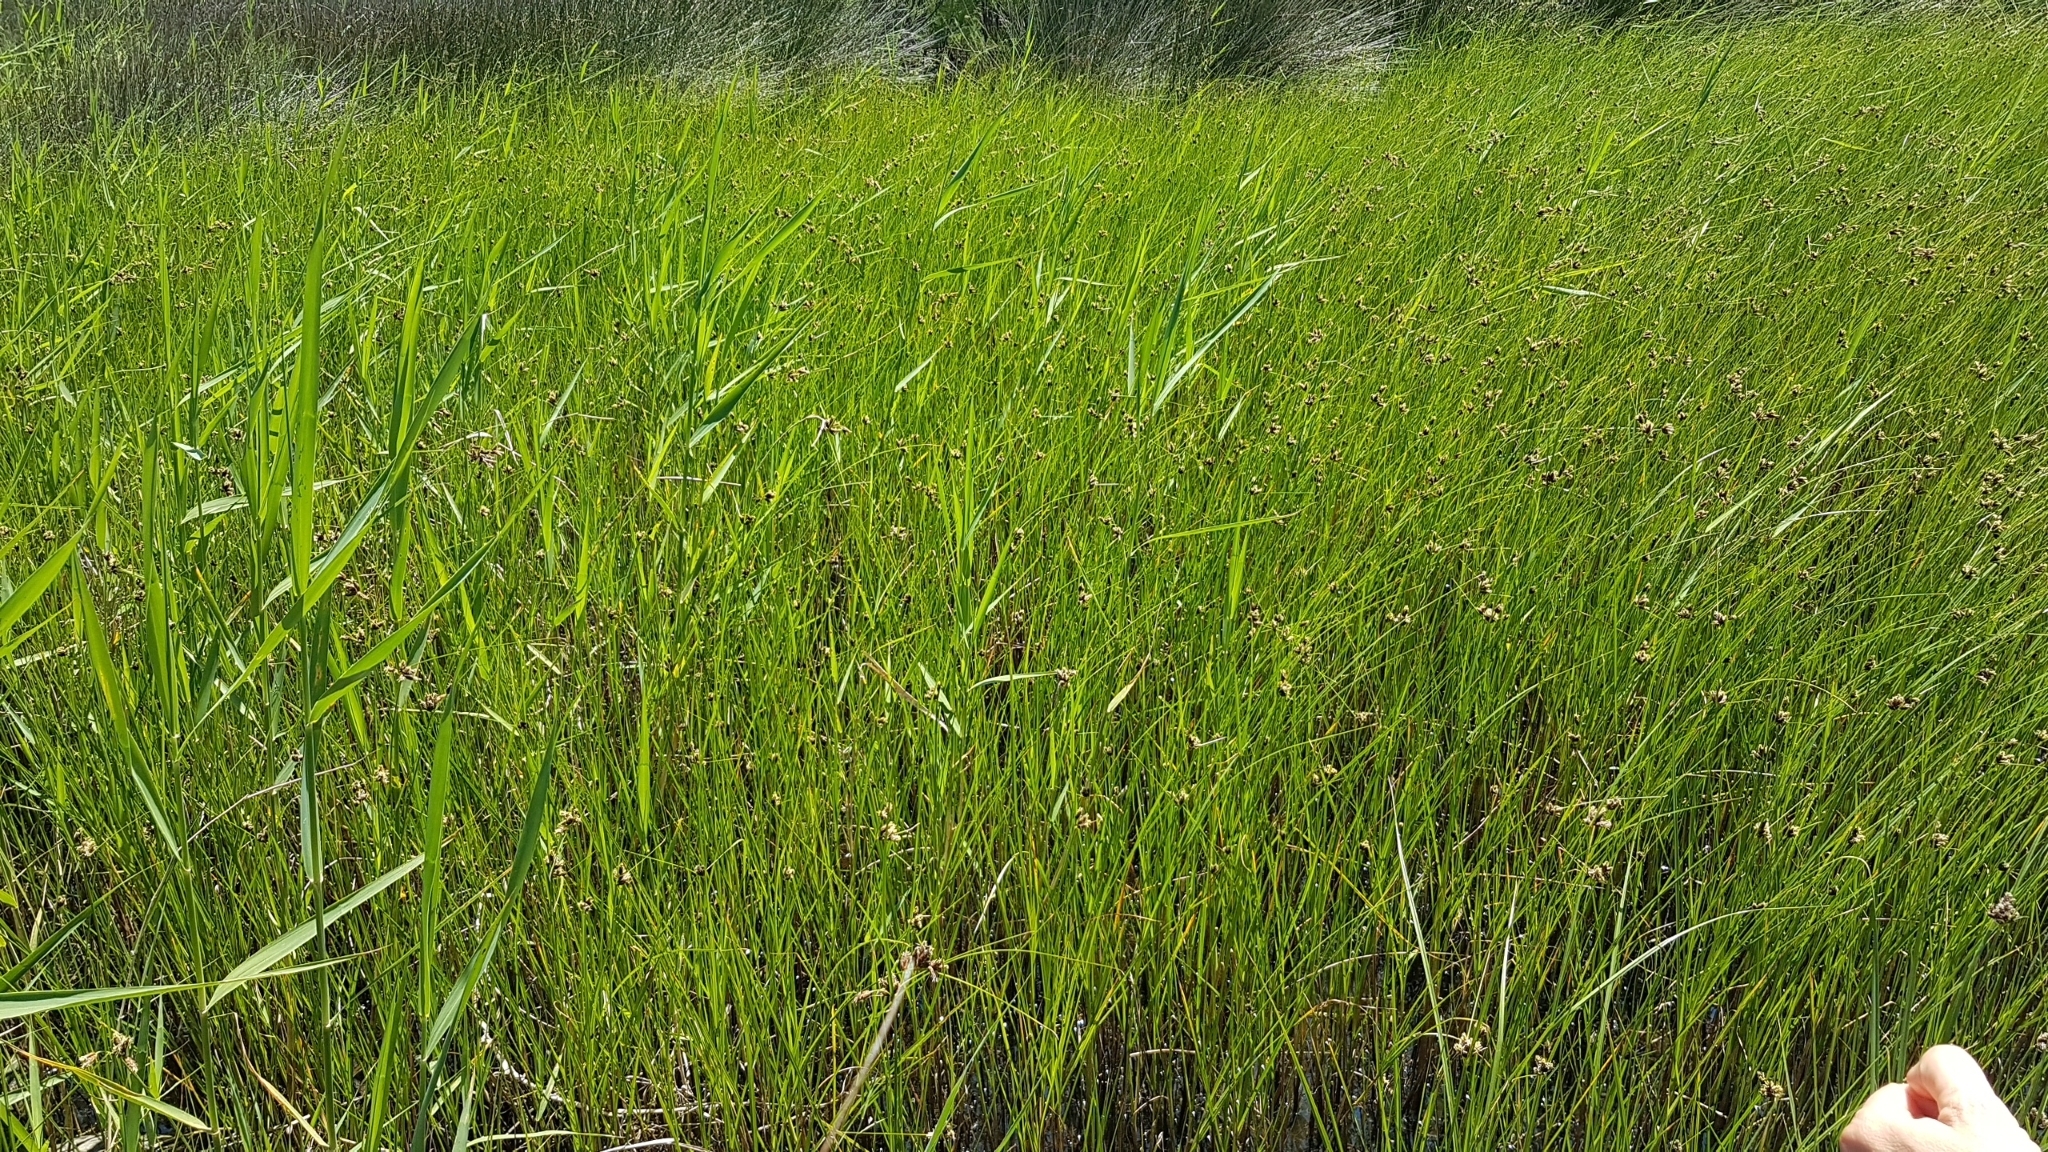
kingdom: Plantae
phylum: Tracheophyta
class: Liliopsida
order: Poales
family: Cyperaceae
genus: Bolboschoenus
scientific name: Bolboschoenus maritimus
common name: Sea club-rush
